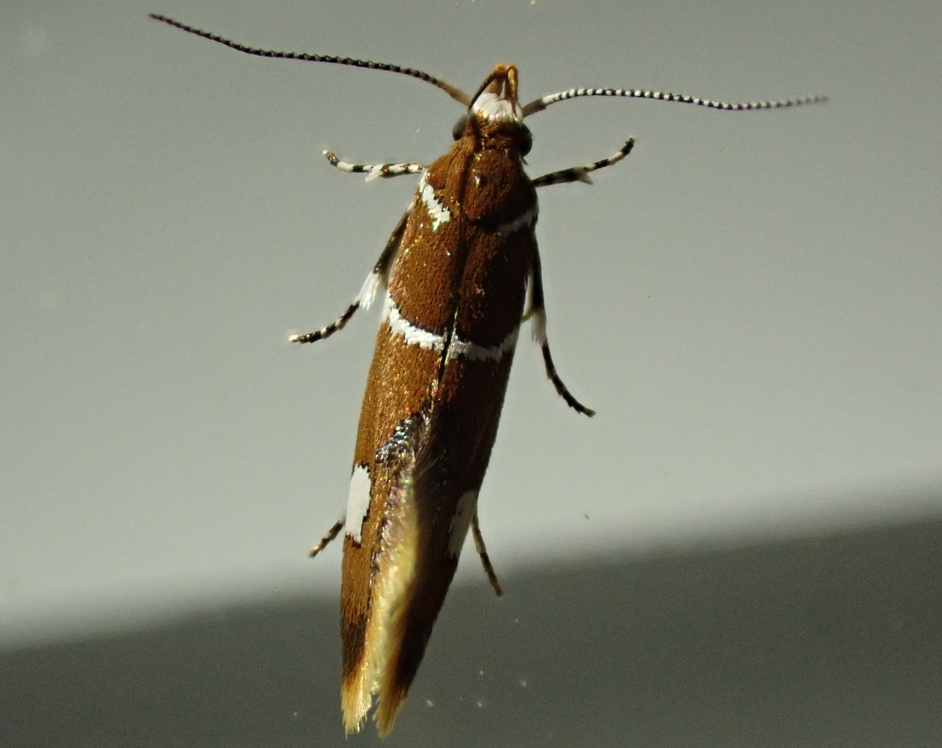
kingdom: Animalia
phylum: Arthropoda
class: Insecta
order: Lepidoptera
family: Oecophoridae
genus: Promalactis
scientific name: Promalactis suzukiella
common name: Moth
